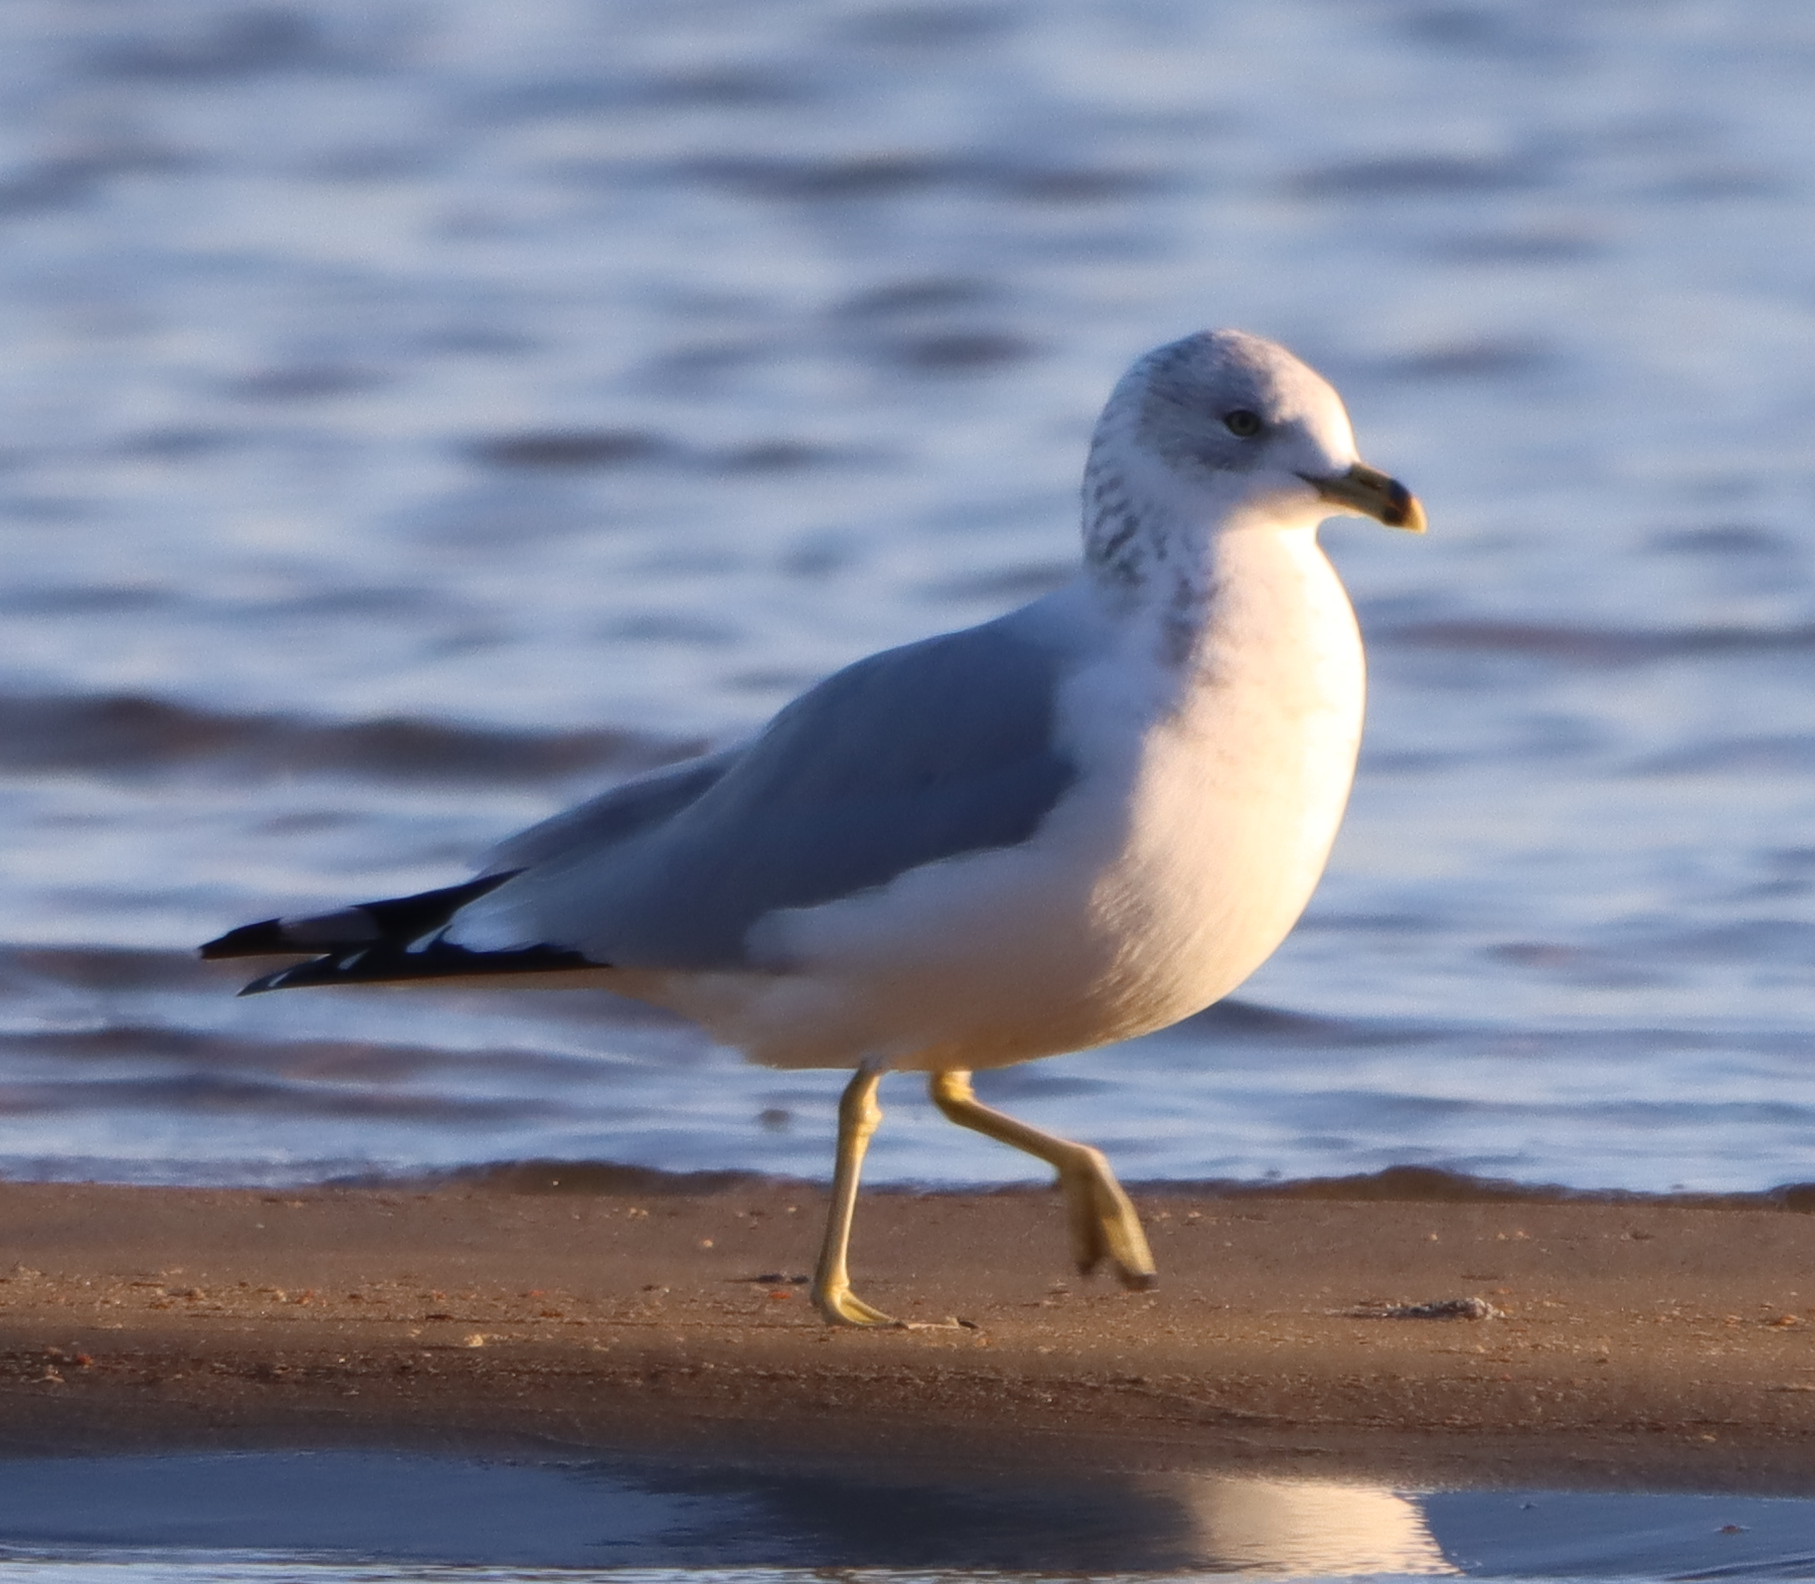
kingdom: Animalia
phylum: Chordata
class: Aves
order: Charadriiformes
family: Laridae
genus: Larus
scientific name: Larus delawarensis
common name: Ring-billed gull
